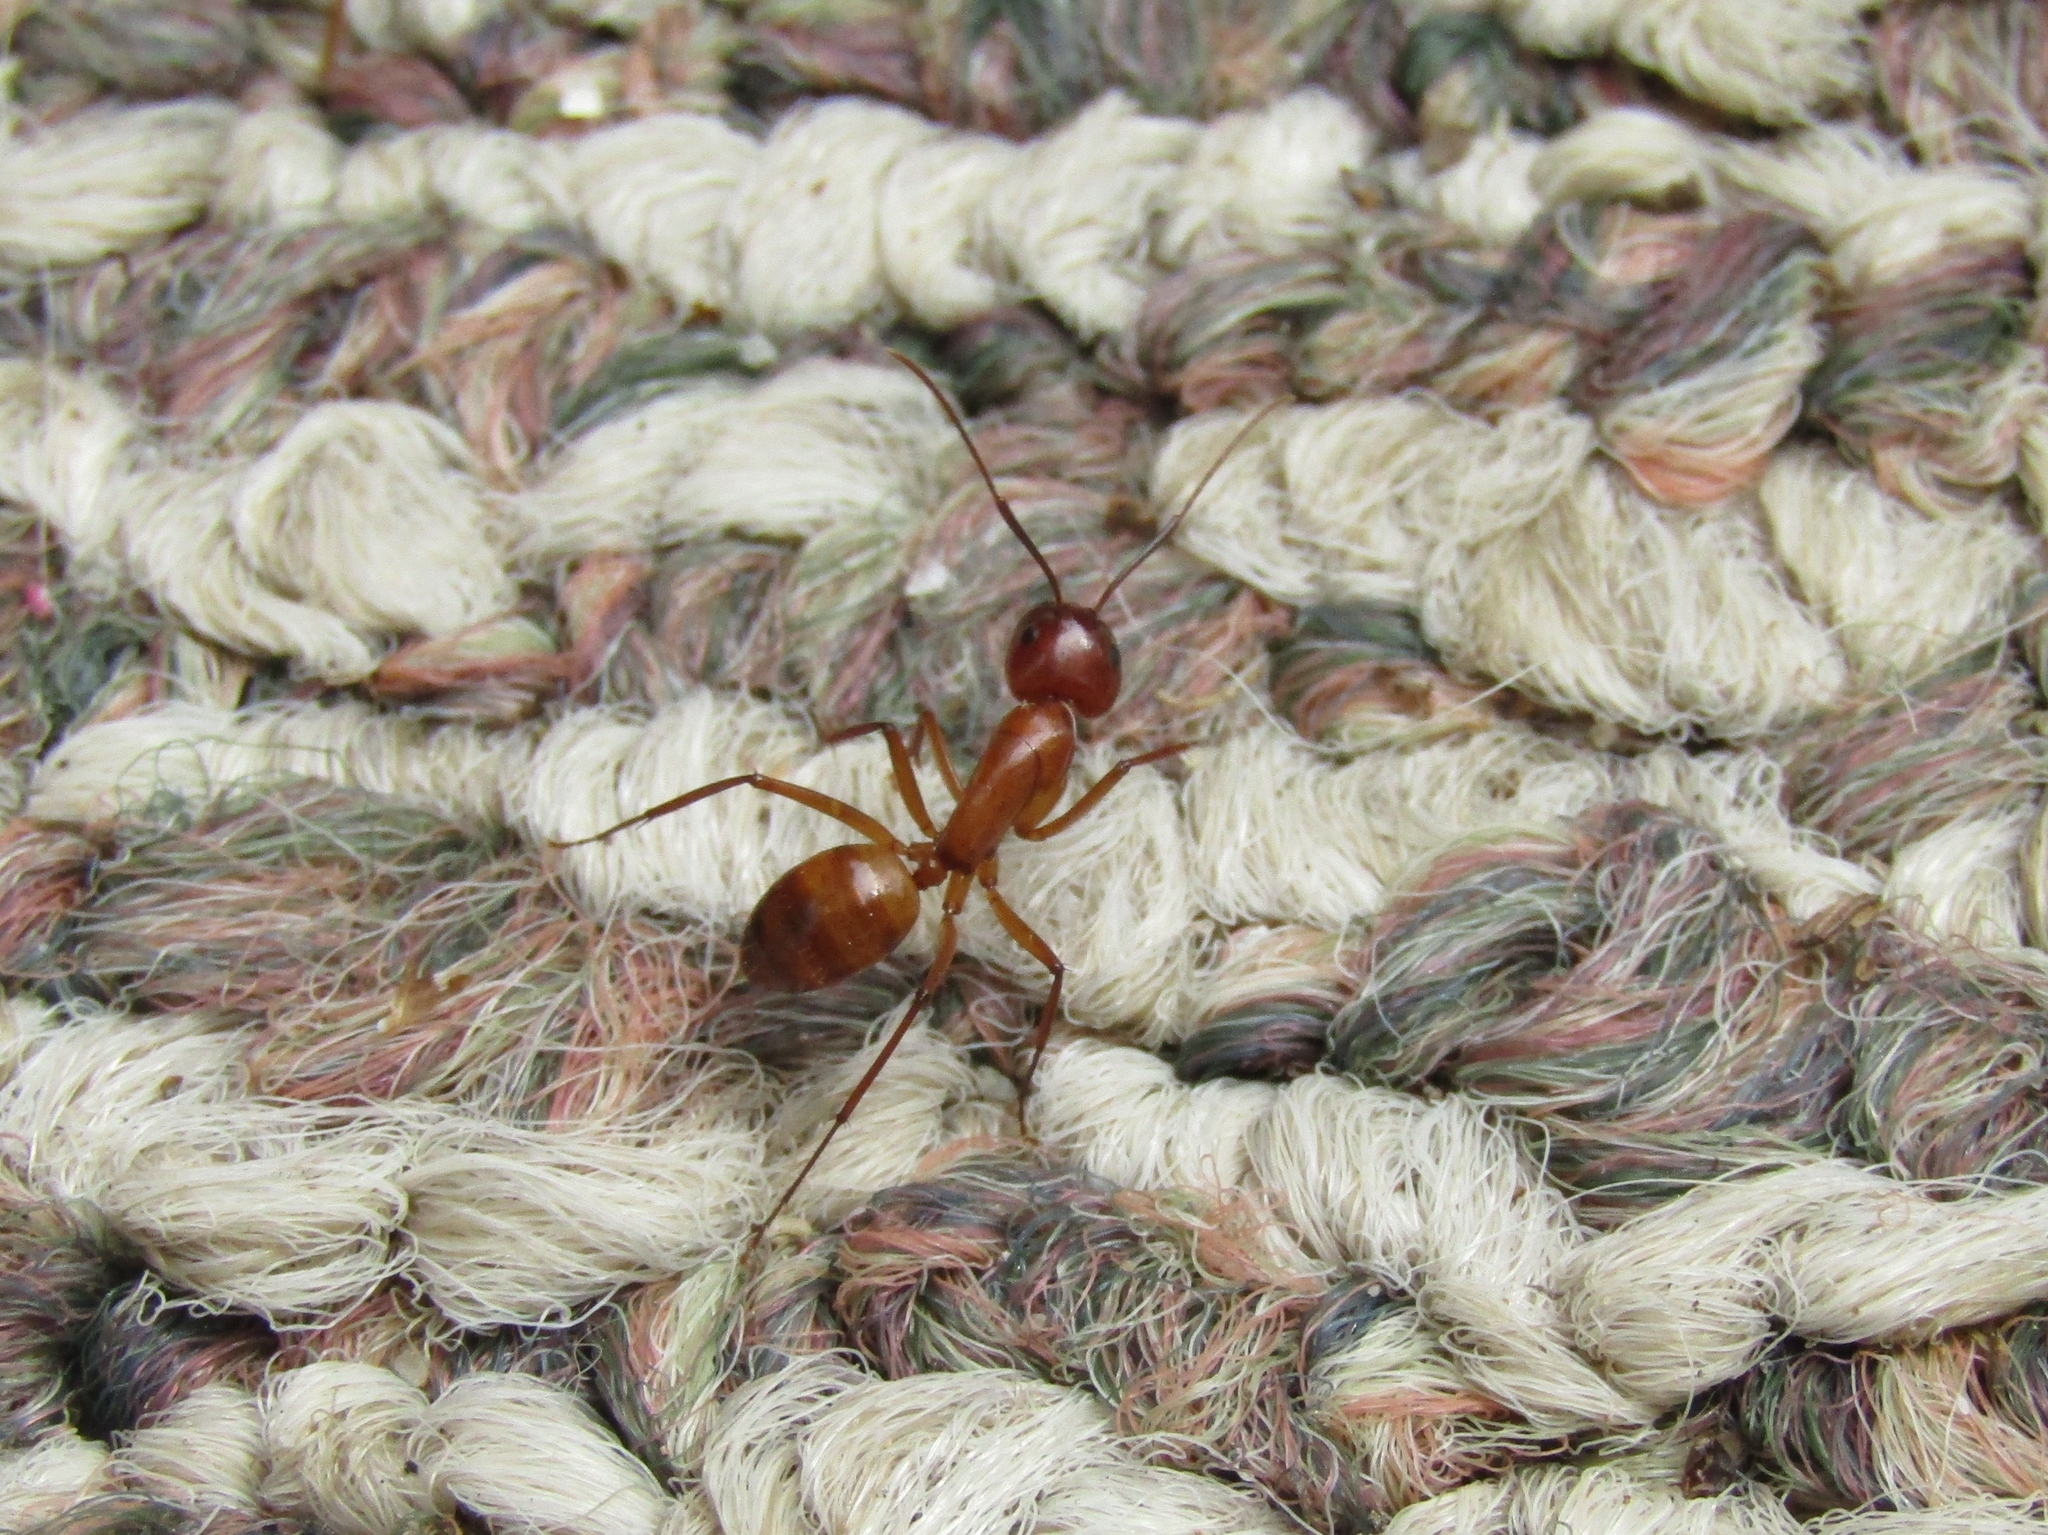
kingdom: Animalia
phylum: Arthropoda
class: Insecta
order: Hymenoptera
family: Formicidae
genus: Camponotus
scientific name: Camponotus castaneus
